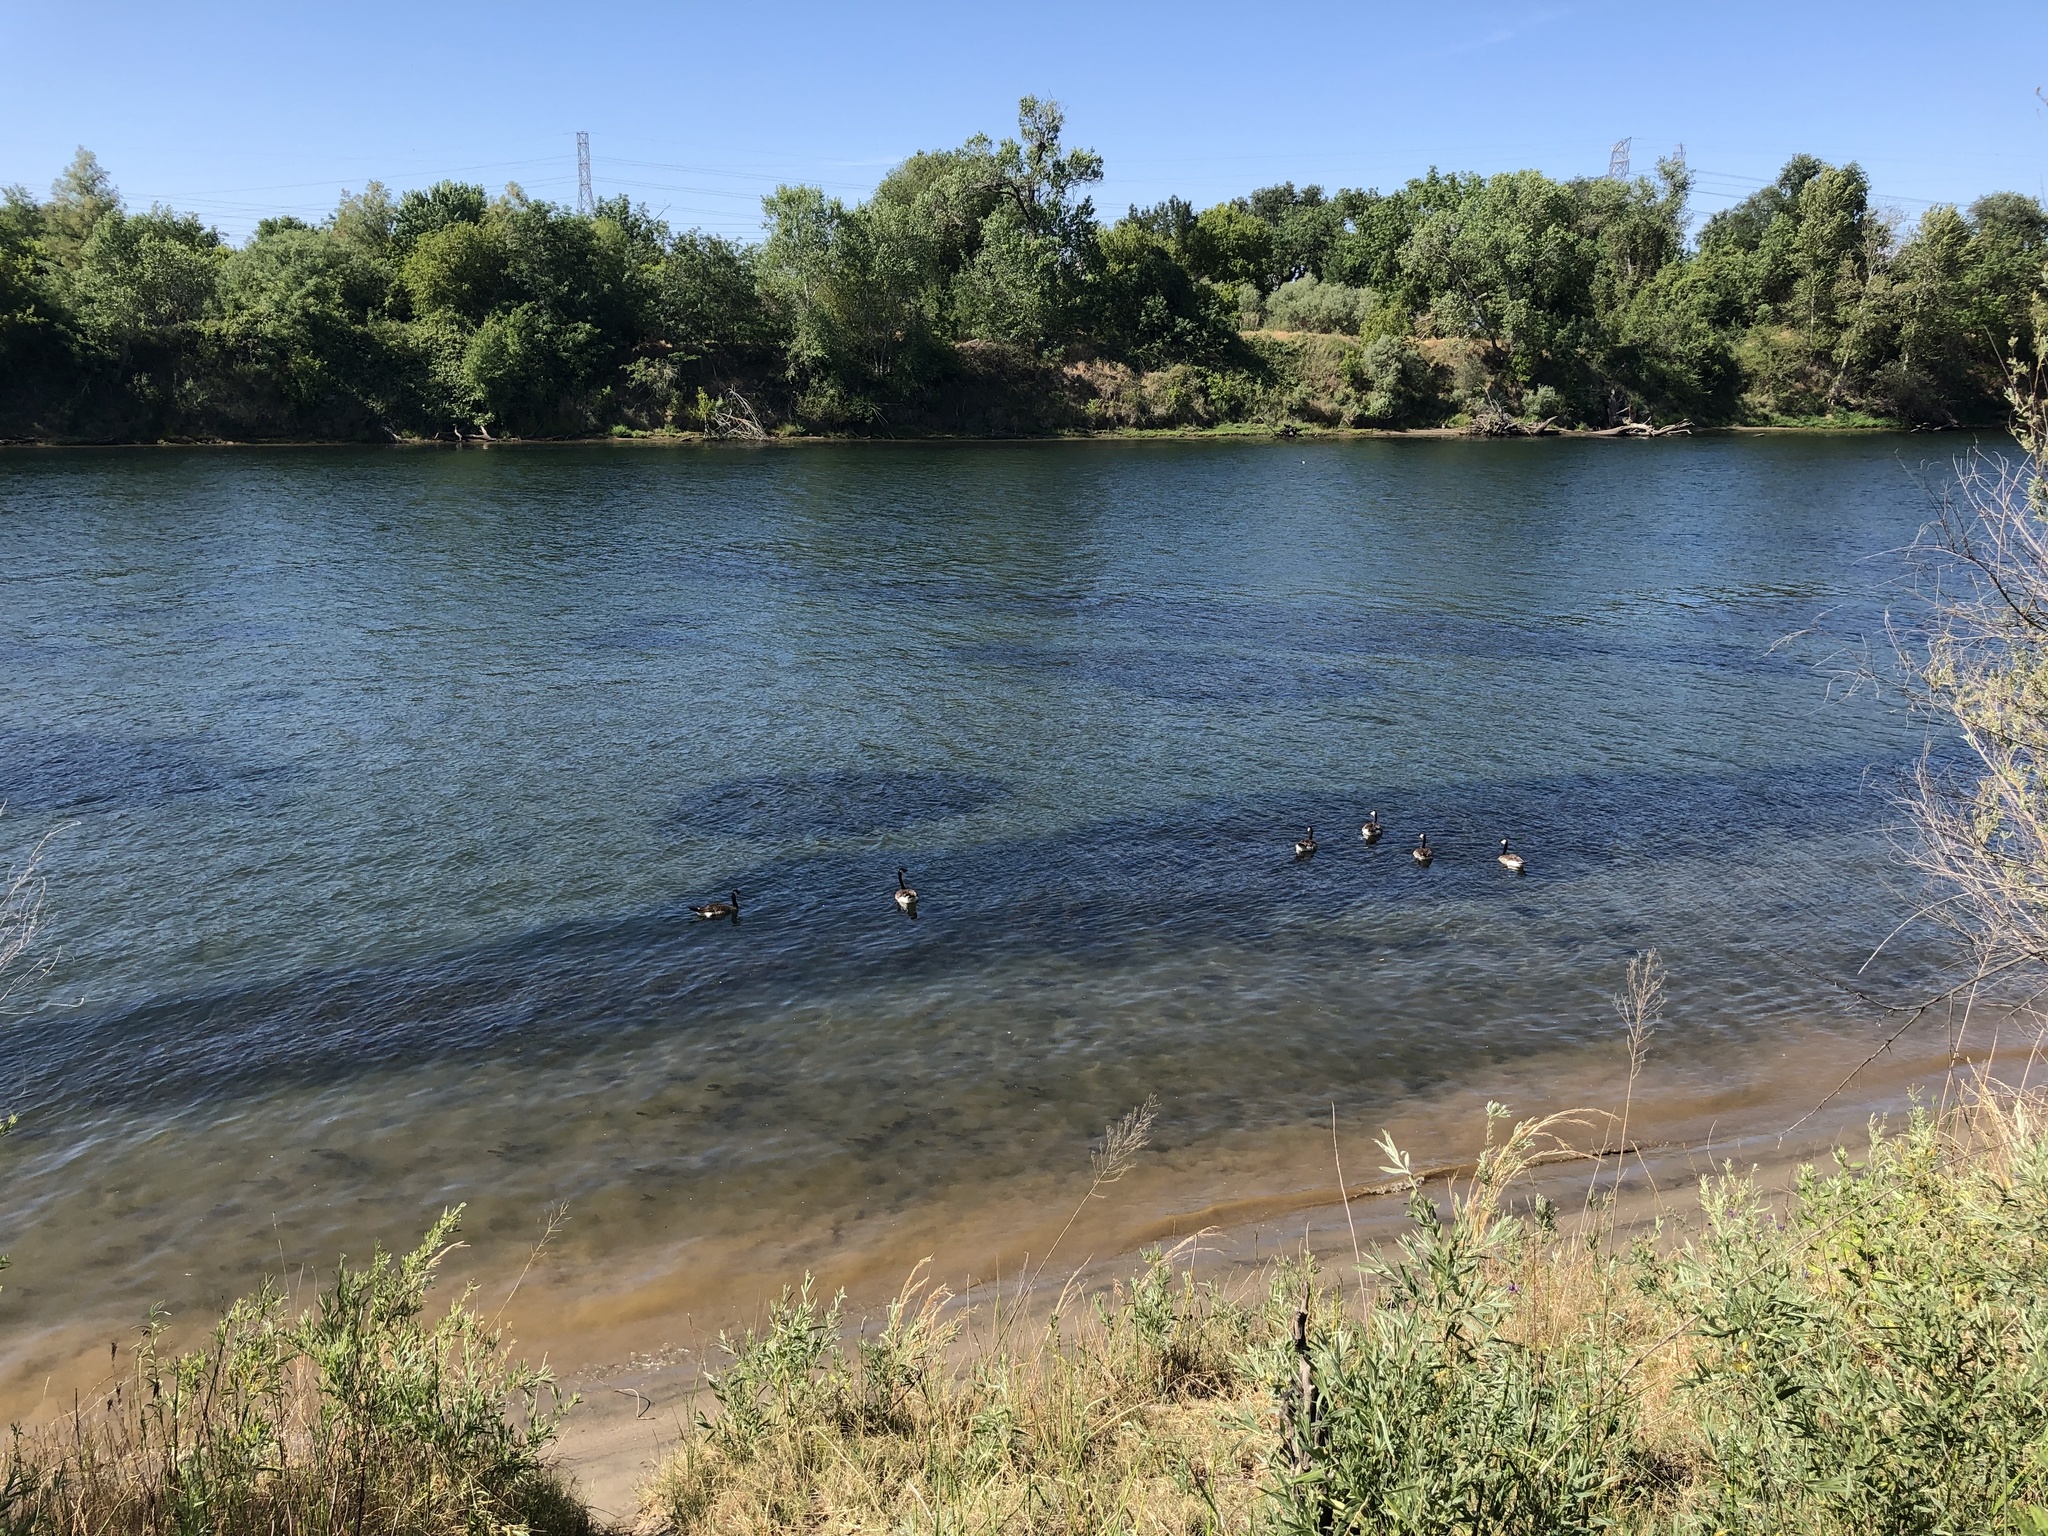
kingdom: Animalia
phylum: Chordata
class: Aves
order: Anseriformes
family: Anatidae
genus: Branta
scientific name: Branta canadensis
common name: Canada goose
